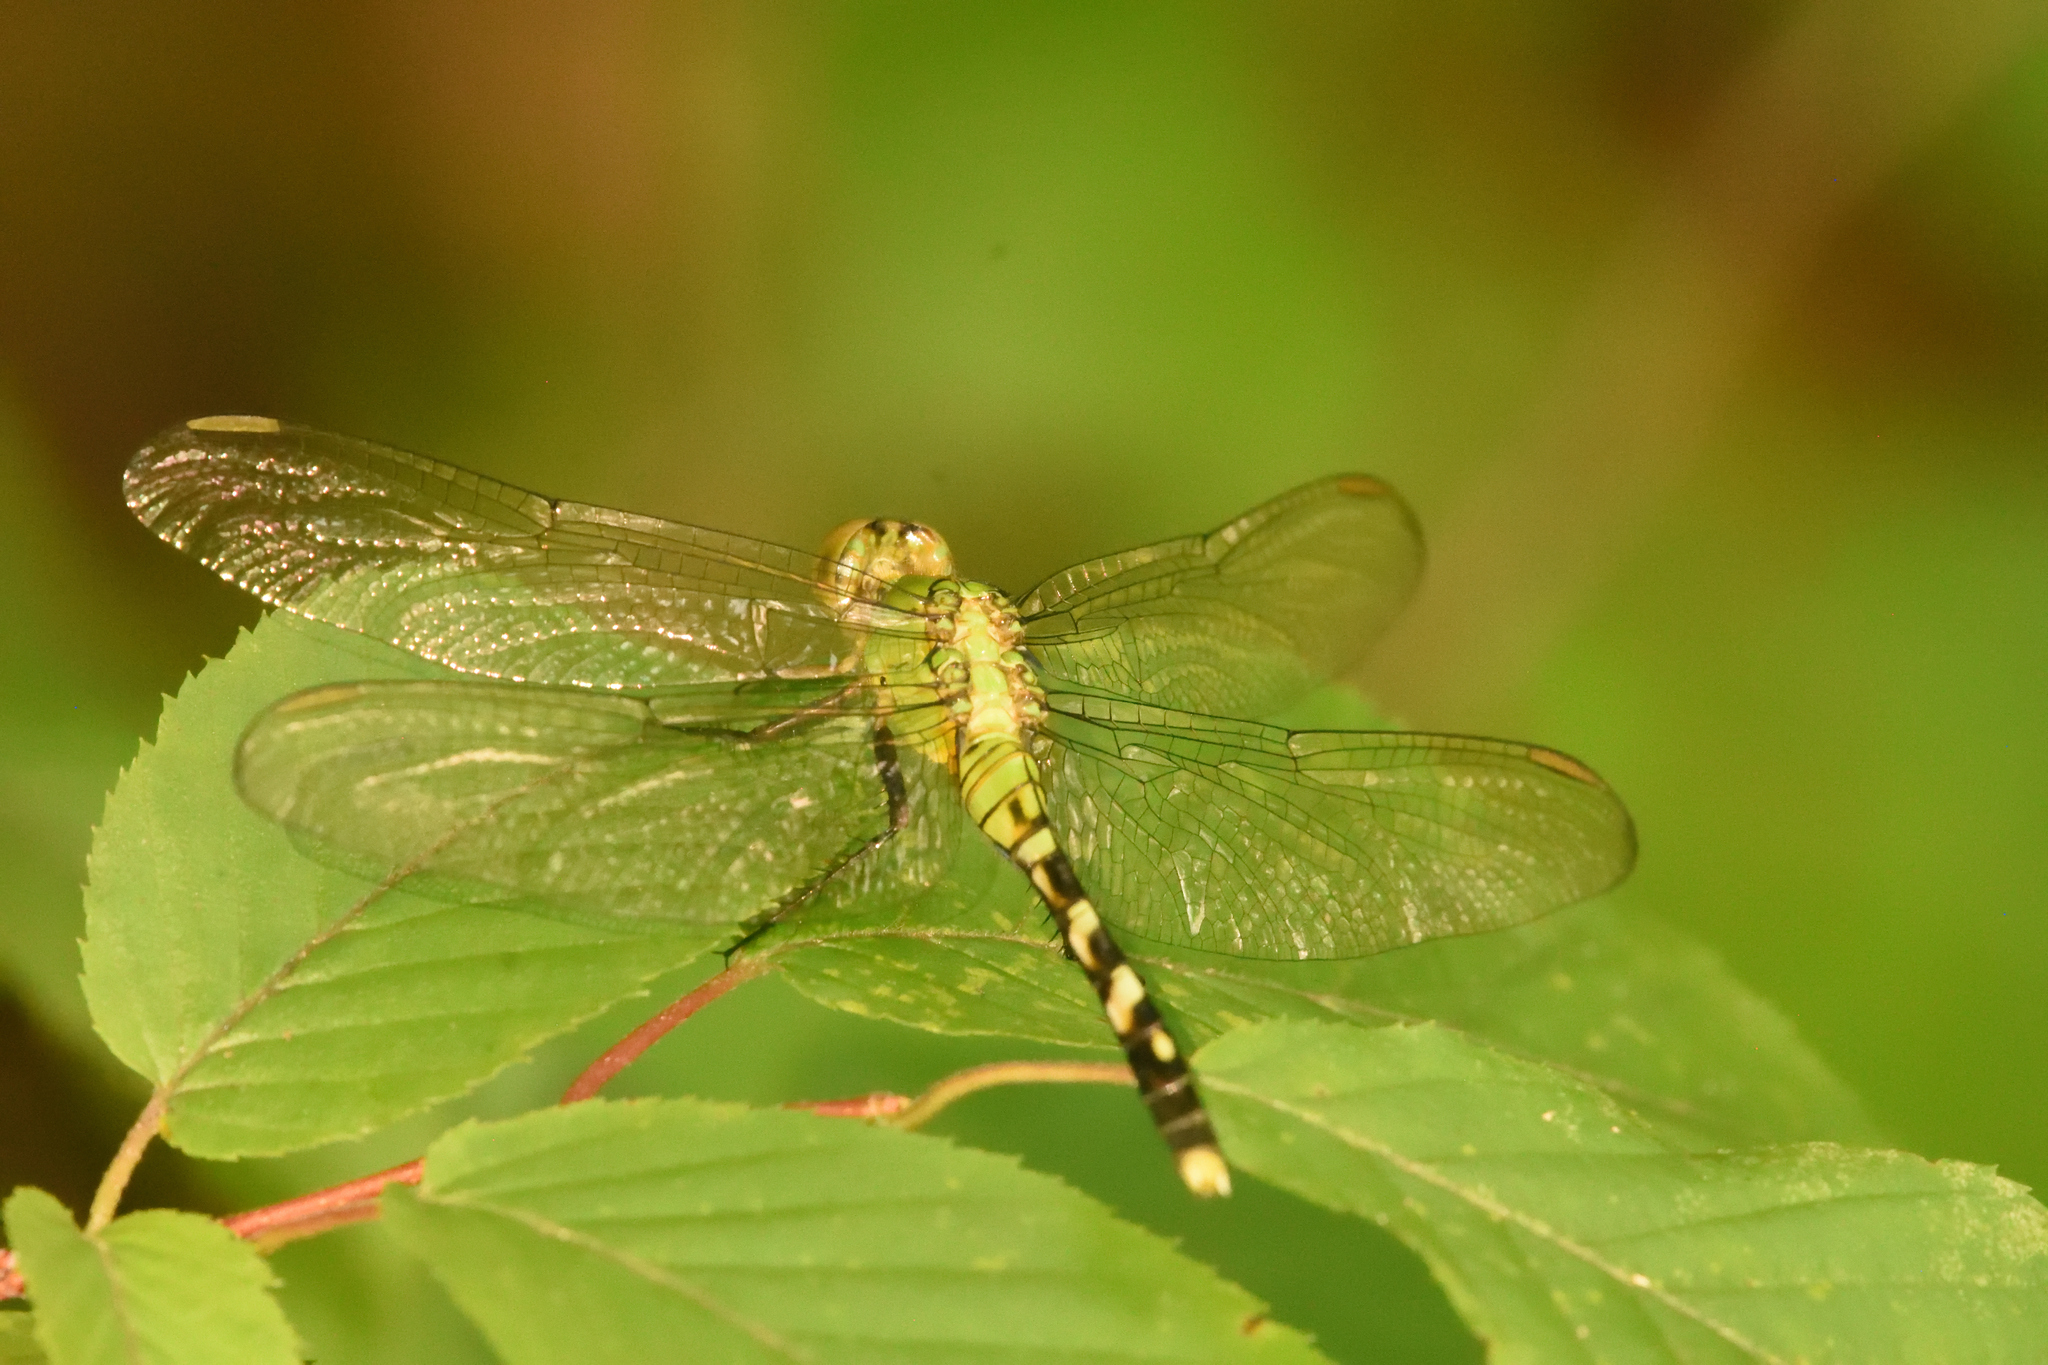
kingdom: Animalia
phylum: Arthropoda
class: Insecta
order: Odonata
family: Libellulidae
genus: Erythemis
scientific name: Erythemis simplicicollis
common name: Eastern pondhawk
